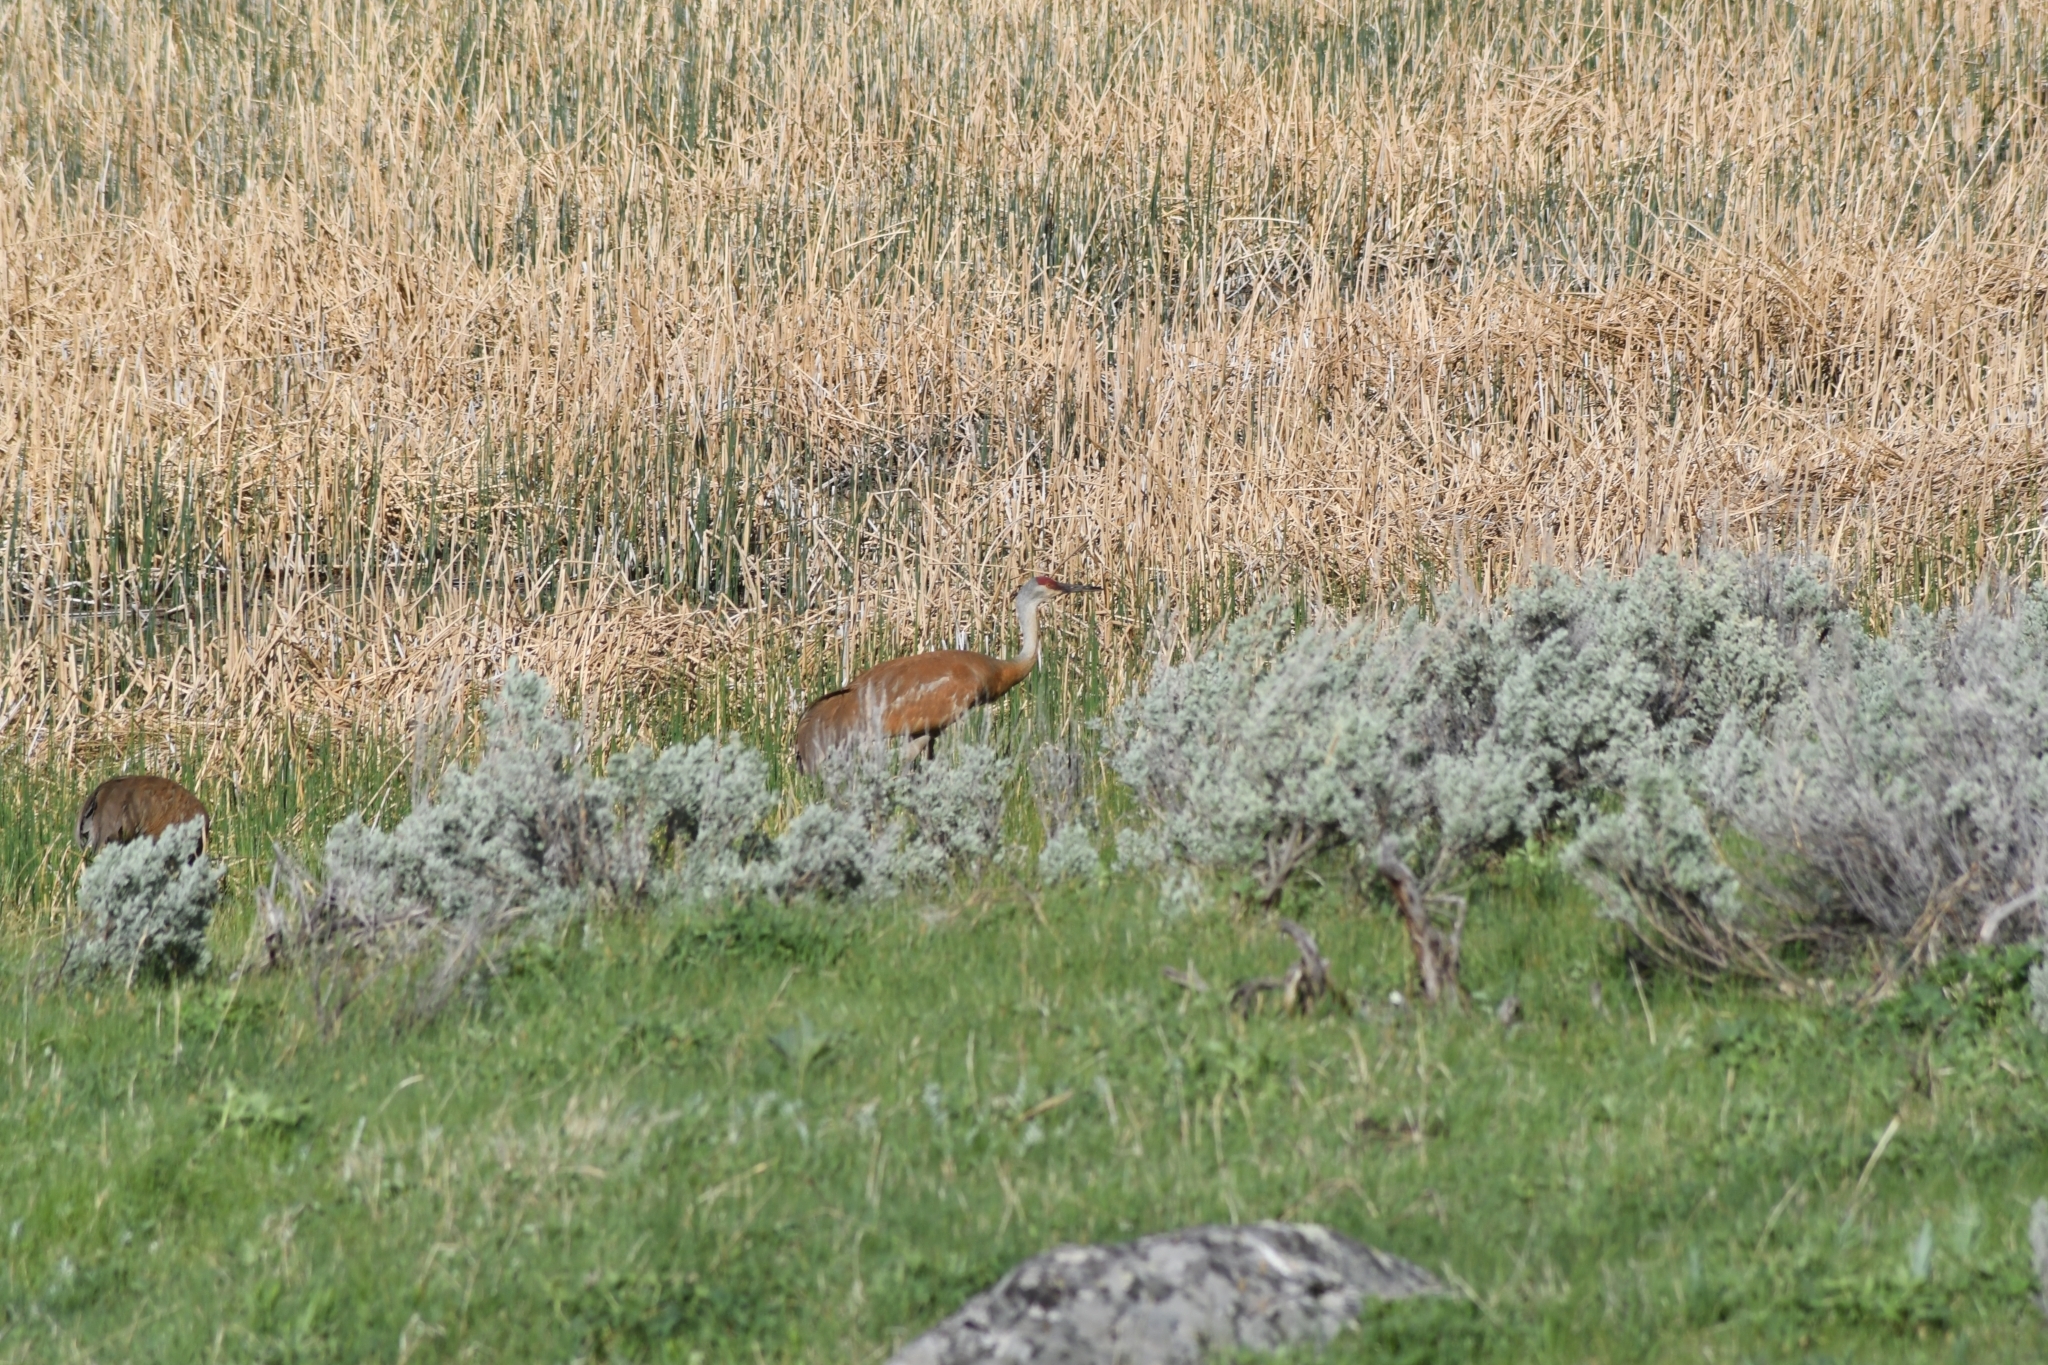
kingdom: Animalia
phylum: Chordata
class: Aves
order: Gruiformes
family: Gruidae
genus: Grus
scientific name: Grus canadensis
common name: Sandhill crane
